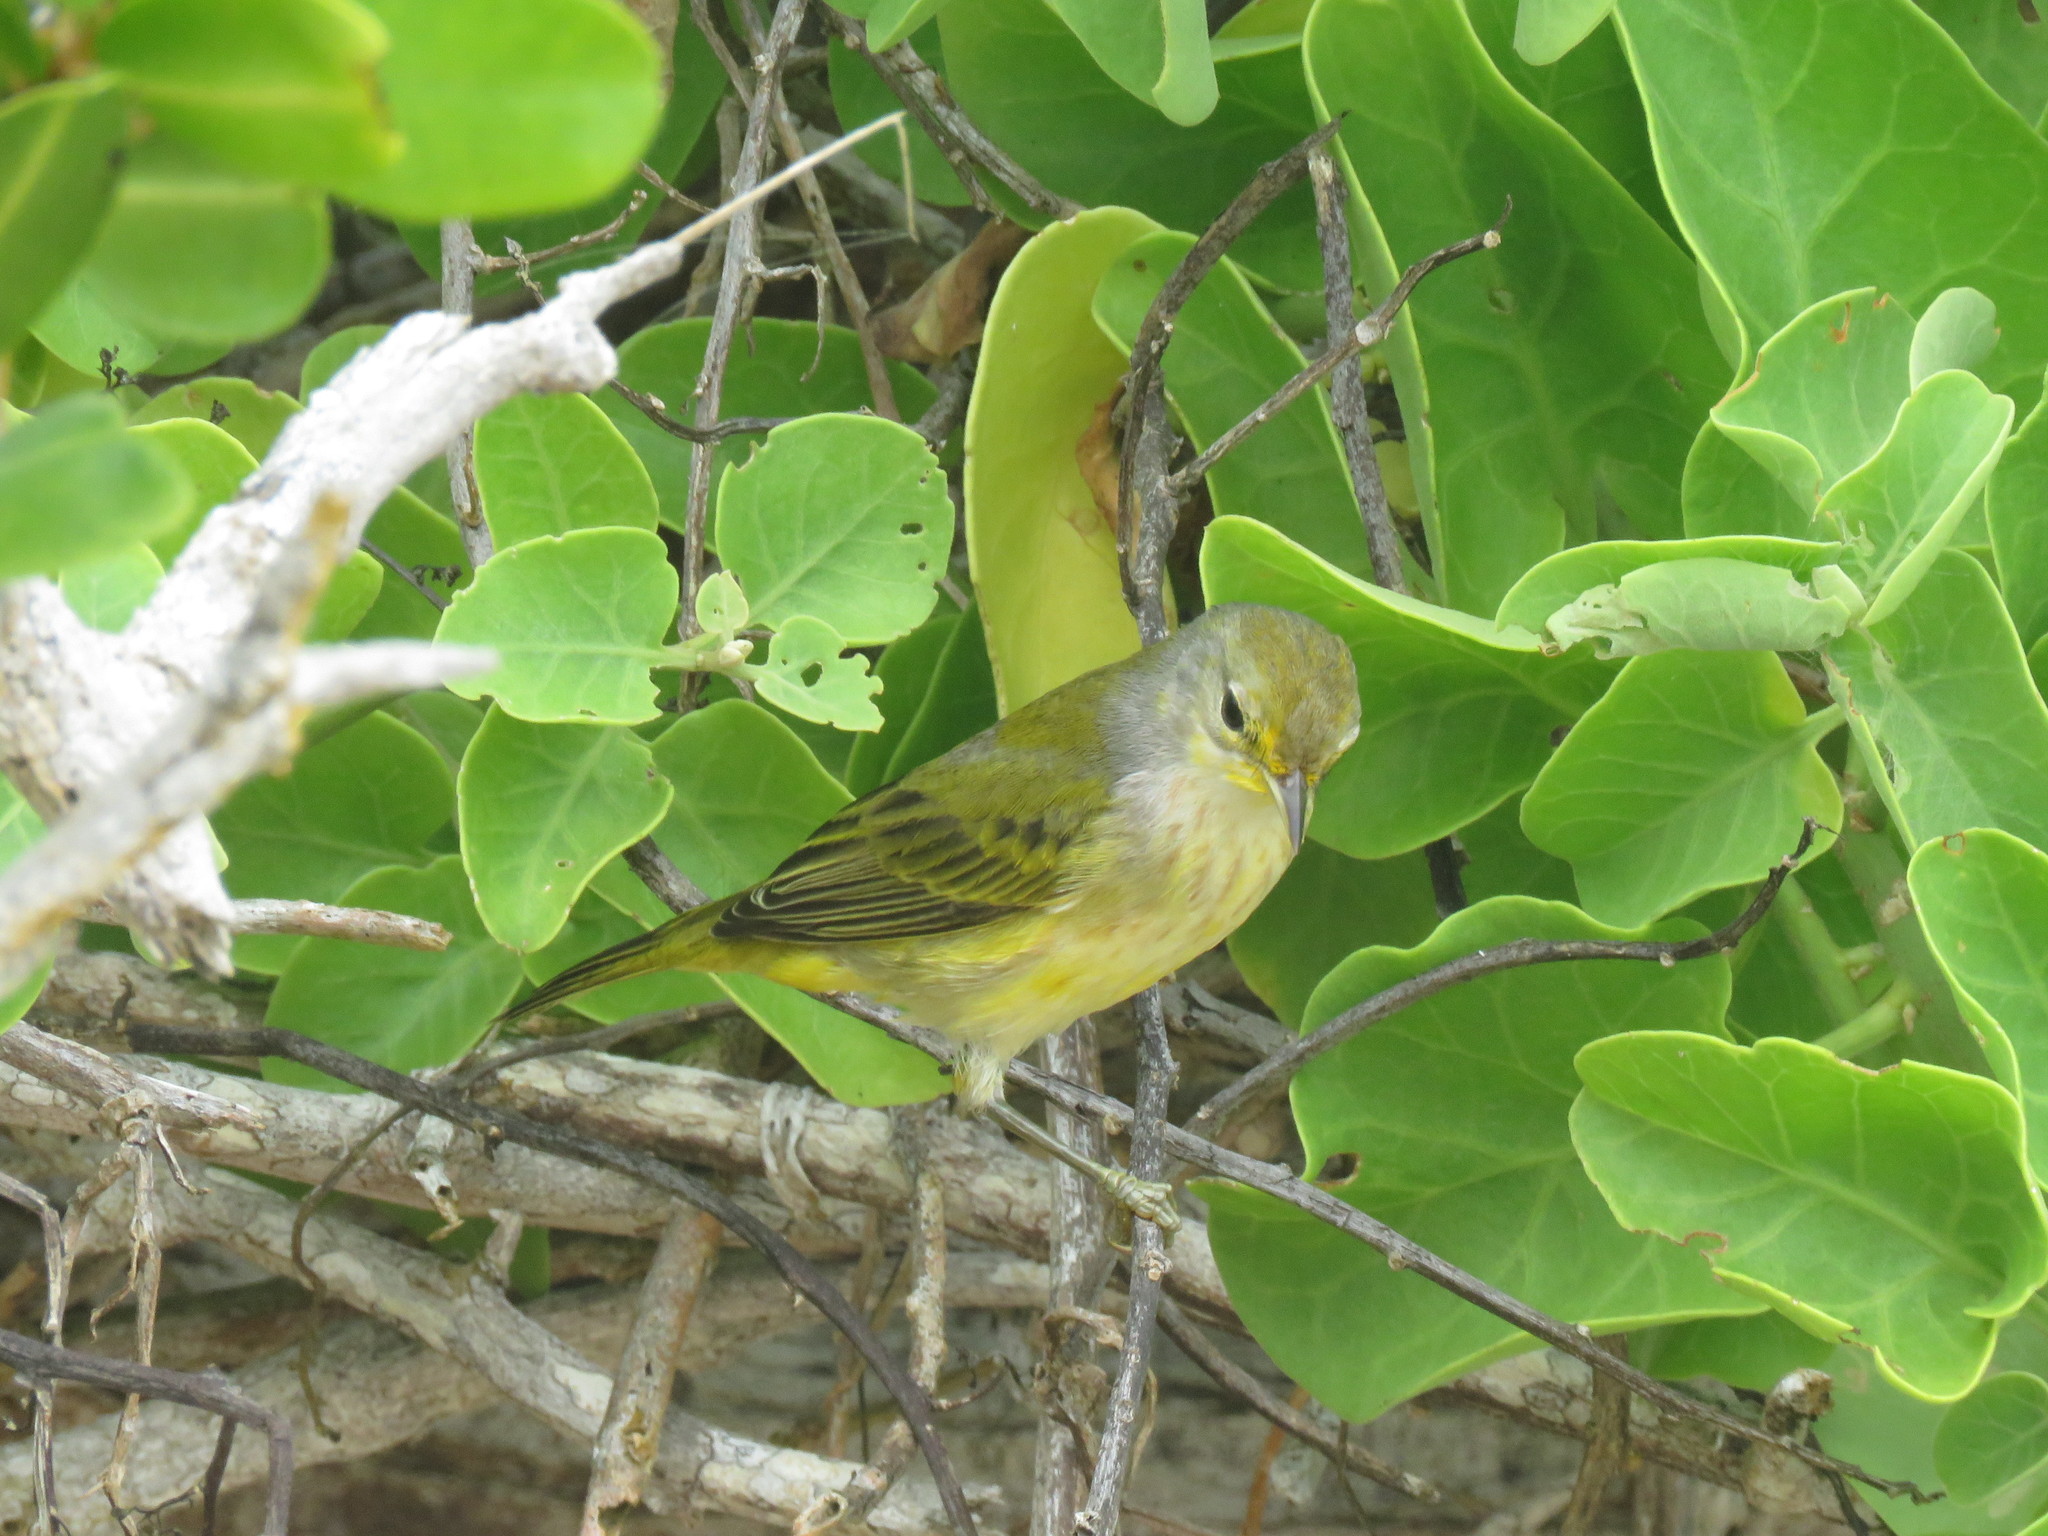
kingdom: Animalia
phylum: Chordata
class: Aves
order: Passeriformes
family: Parulidae
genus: Setophaga
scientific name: Setophaga petechia
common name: Yellow warbler
